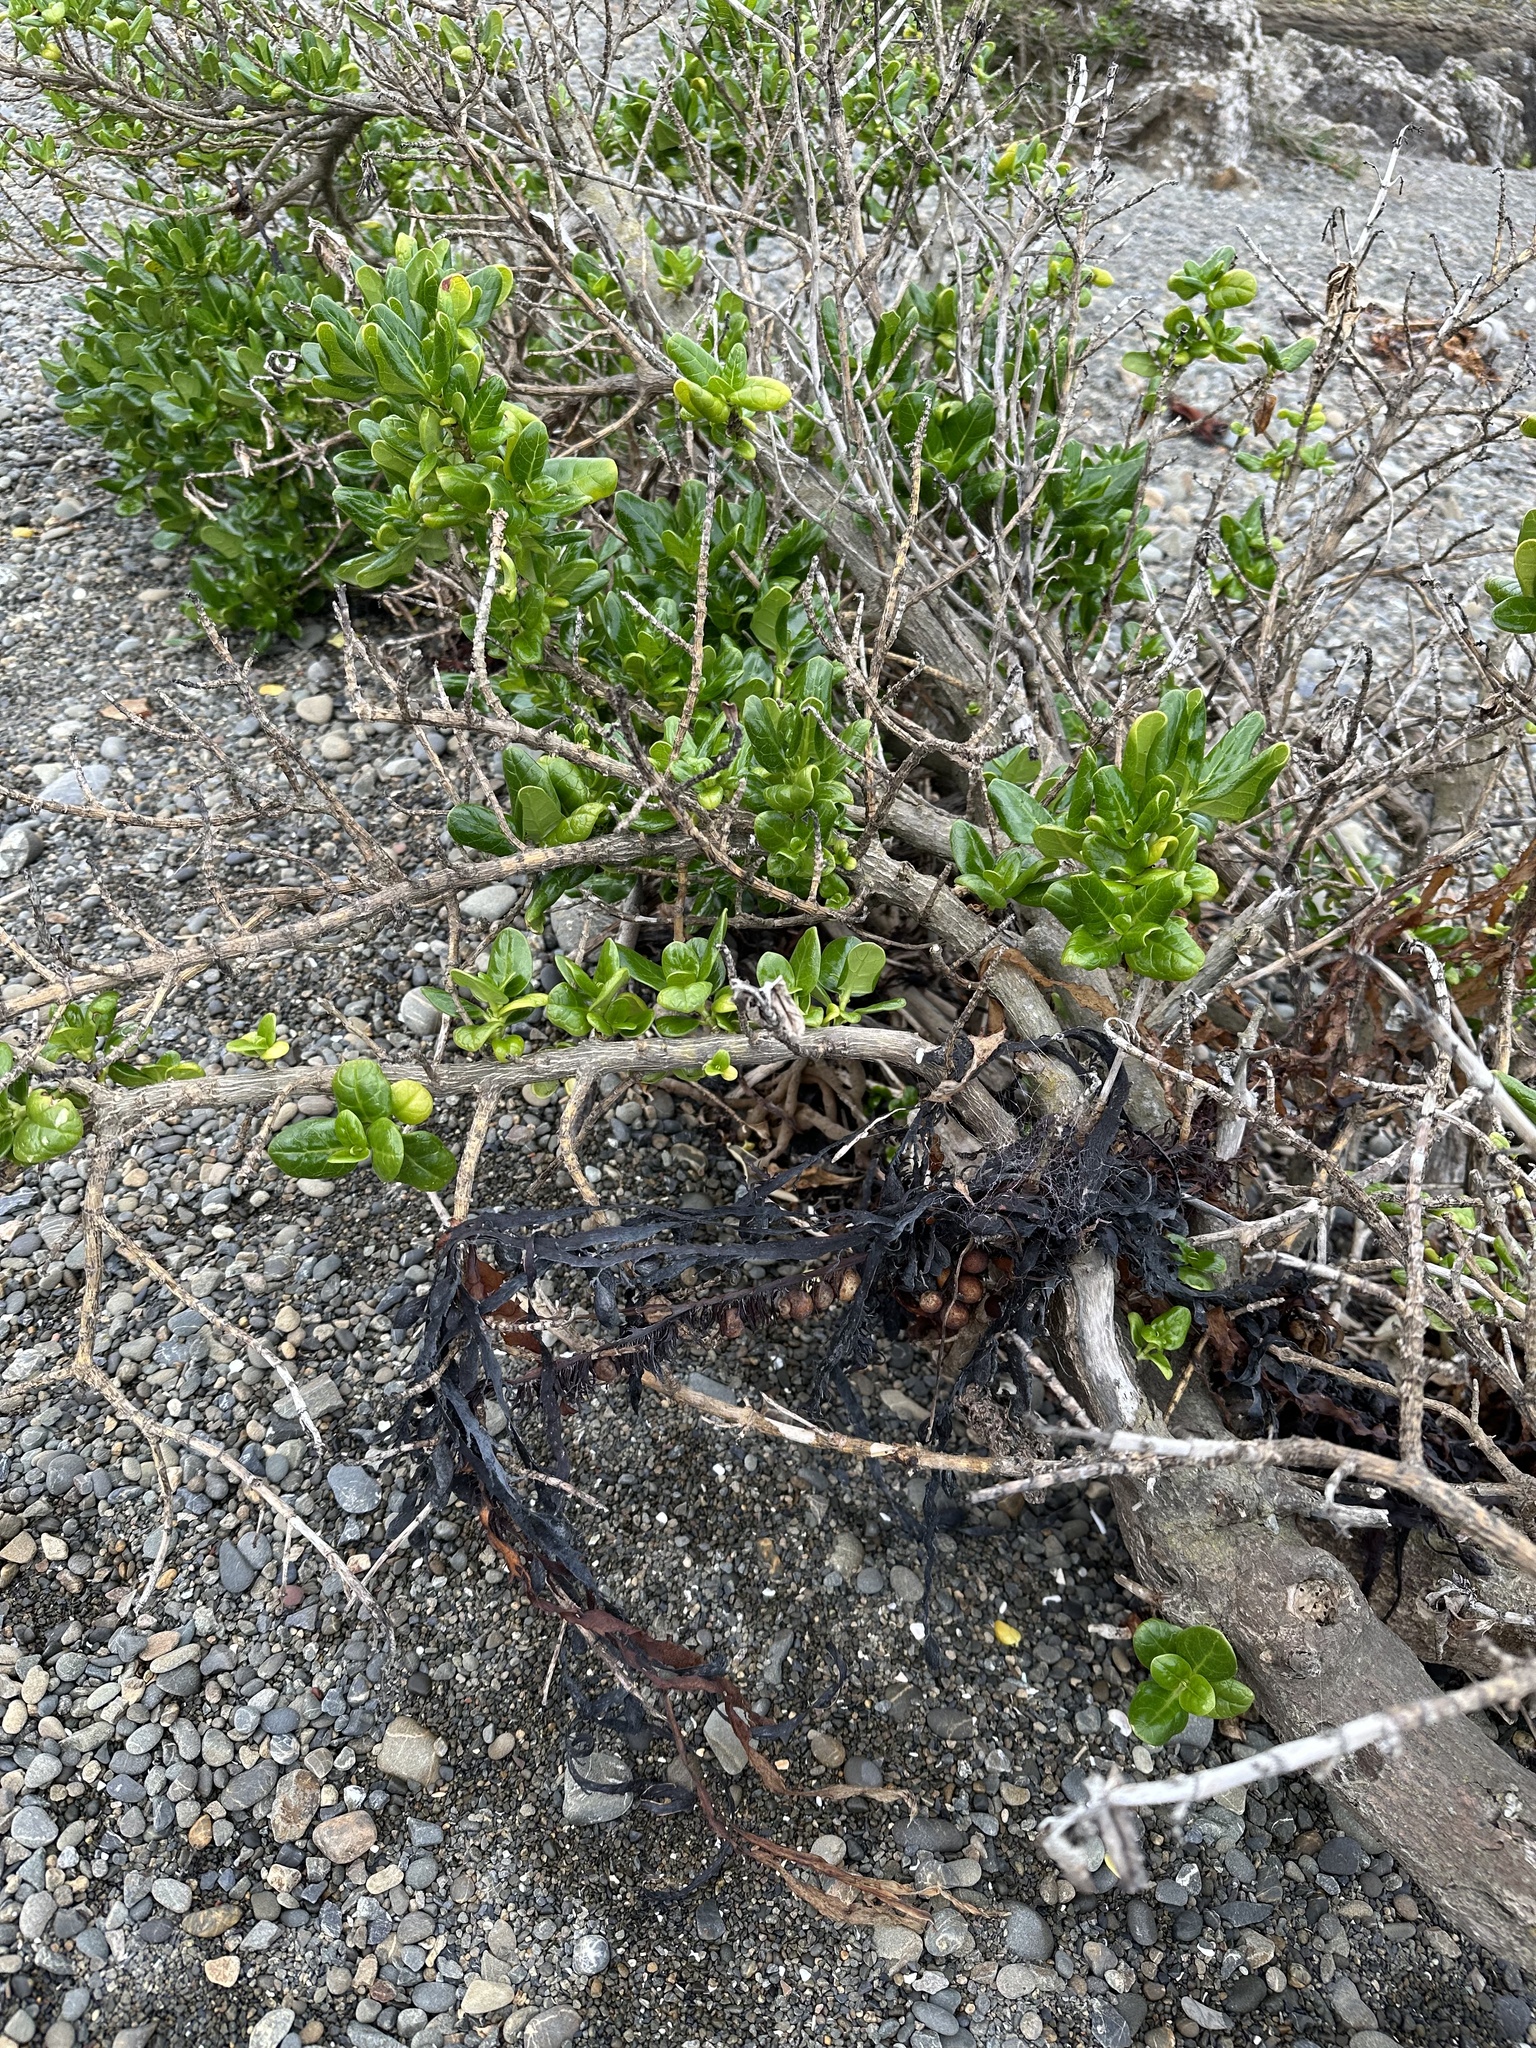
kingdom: Plantae
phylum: Tracheophyta
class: Magnoliopsida
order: Gentianales
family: Rubiaceae
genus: Coprosma
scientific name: Coprosma repens
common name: Tree bedstraw
